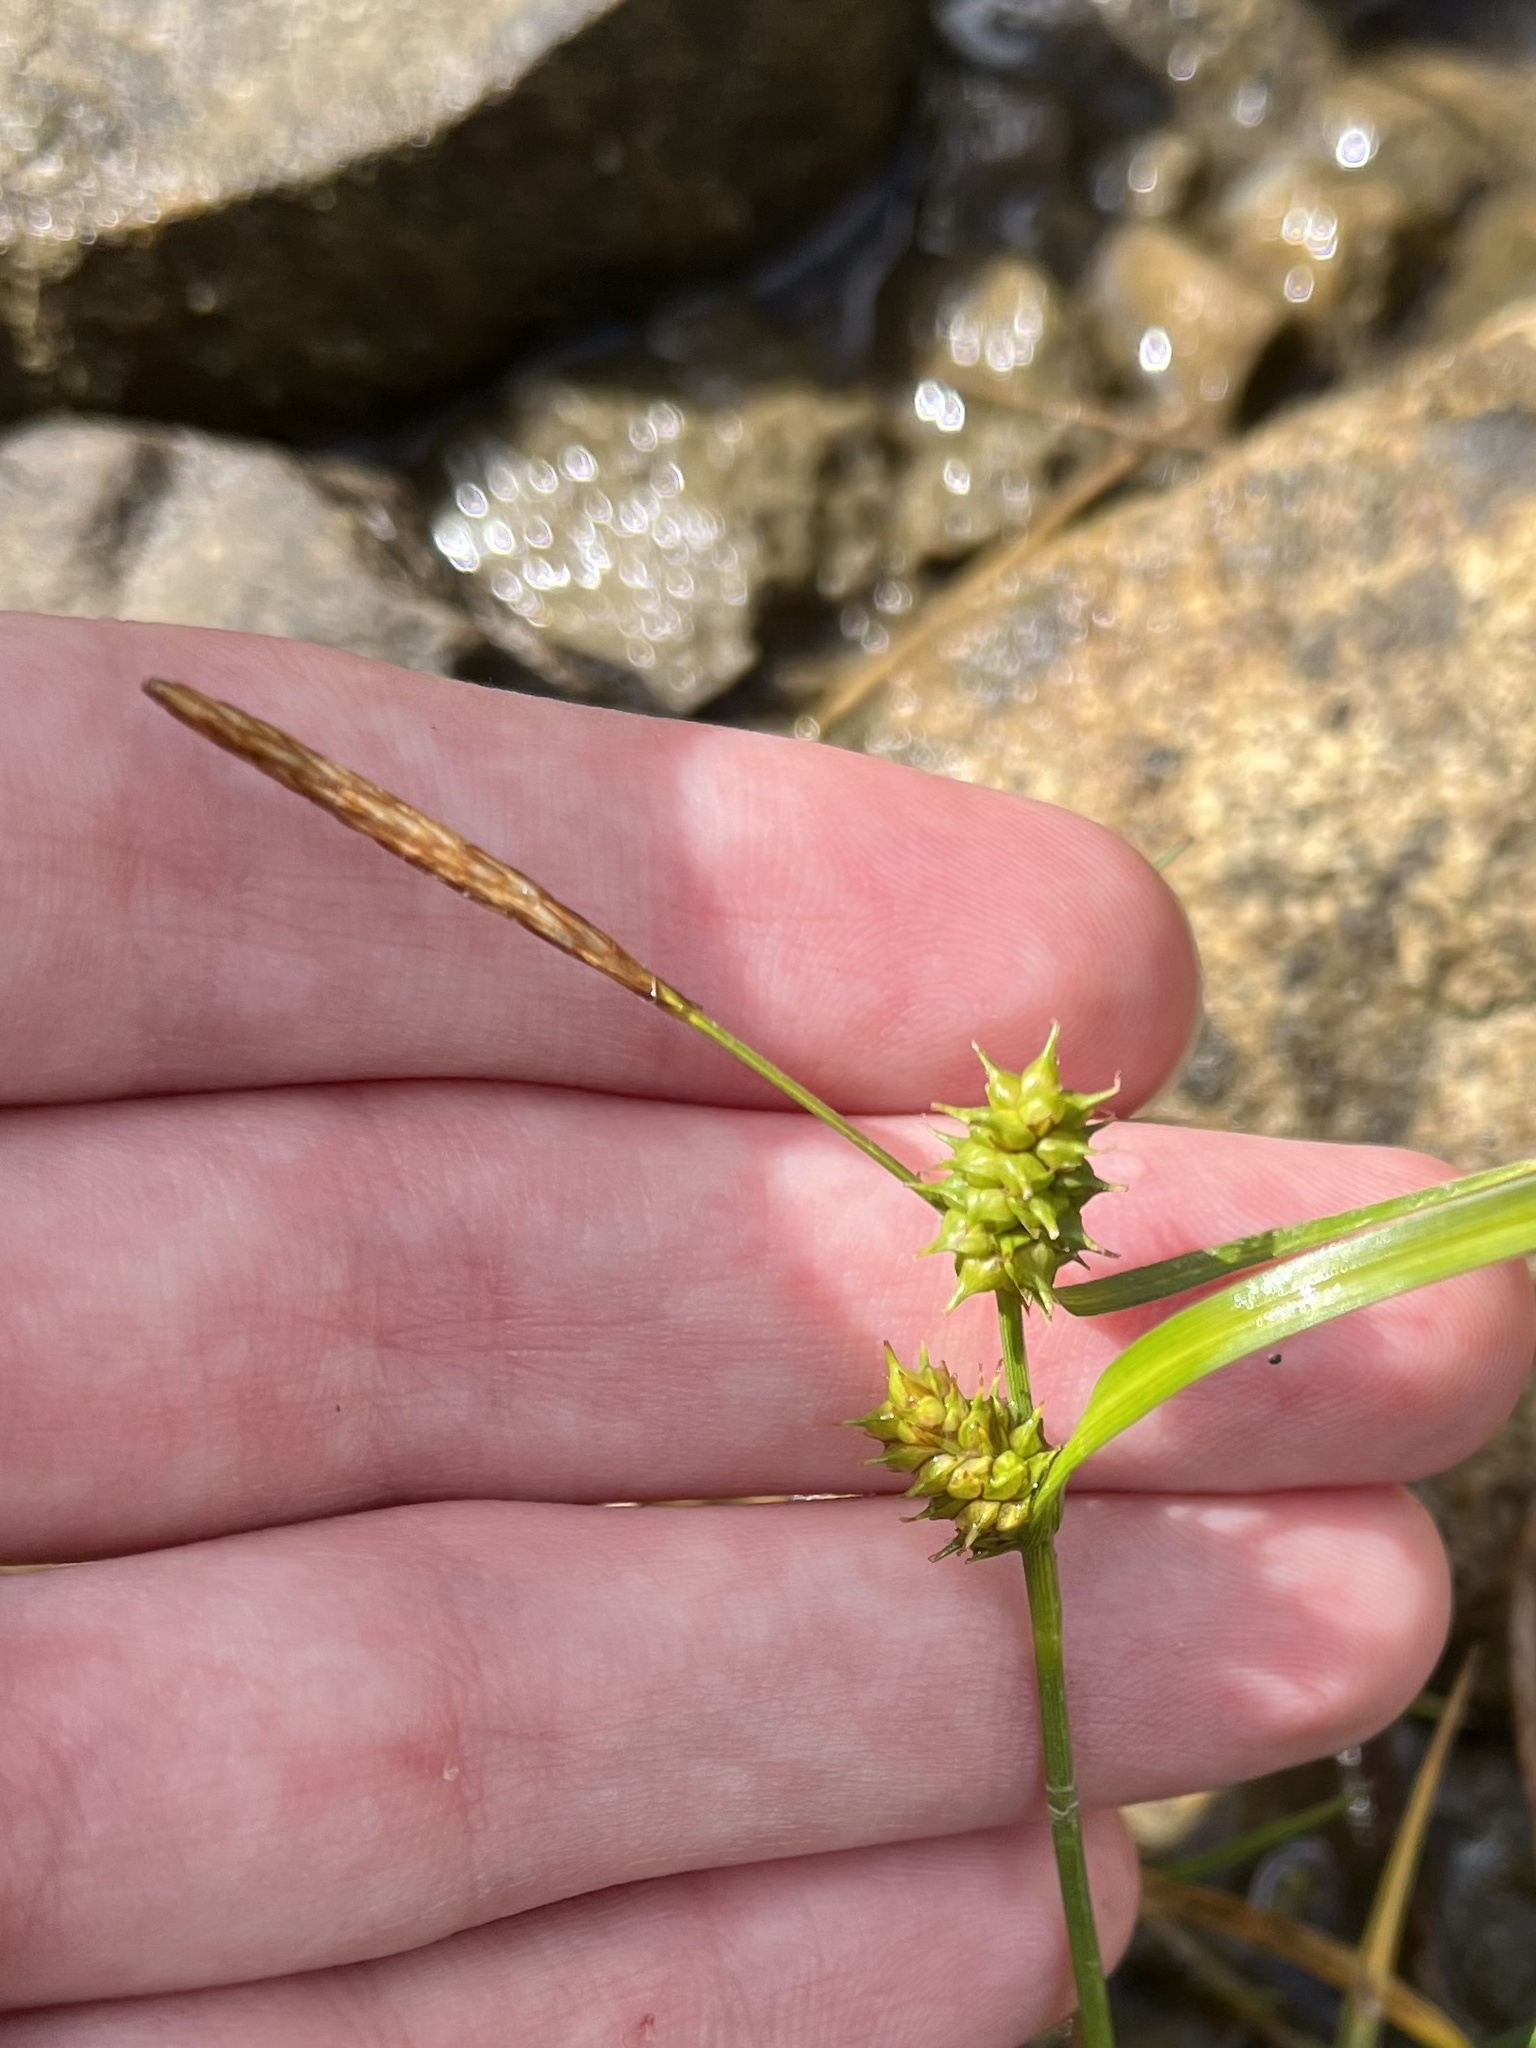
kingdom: Plantae
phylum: Tracheophyta
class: Liliopsida
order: Poales
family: Cyperaceae
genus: Carex
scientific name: Carex demissa
